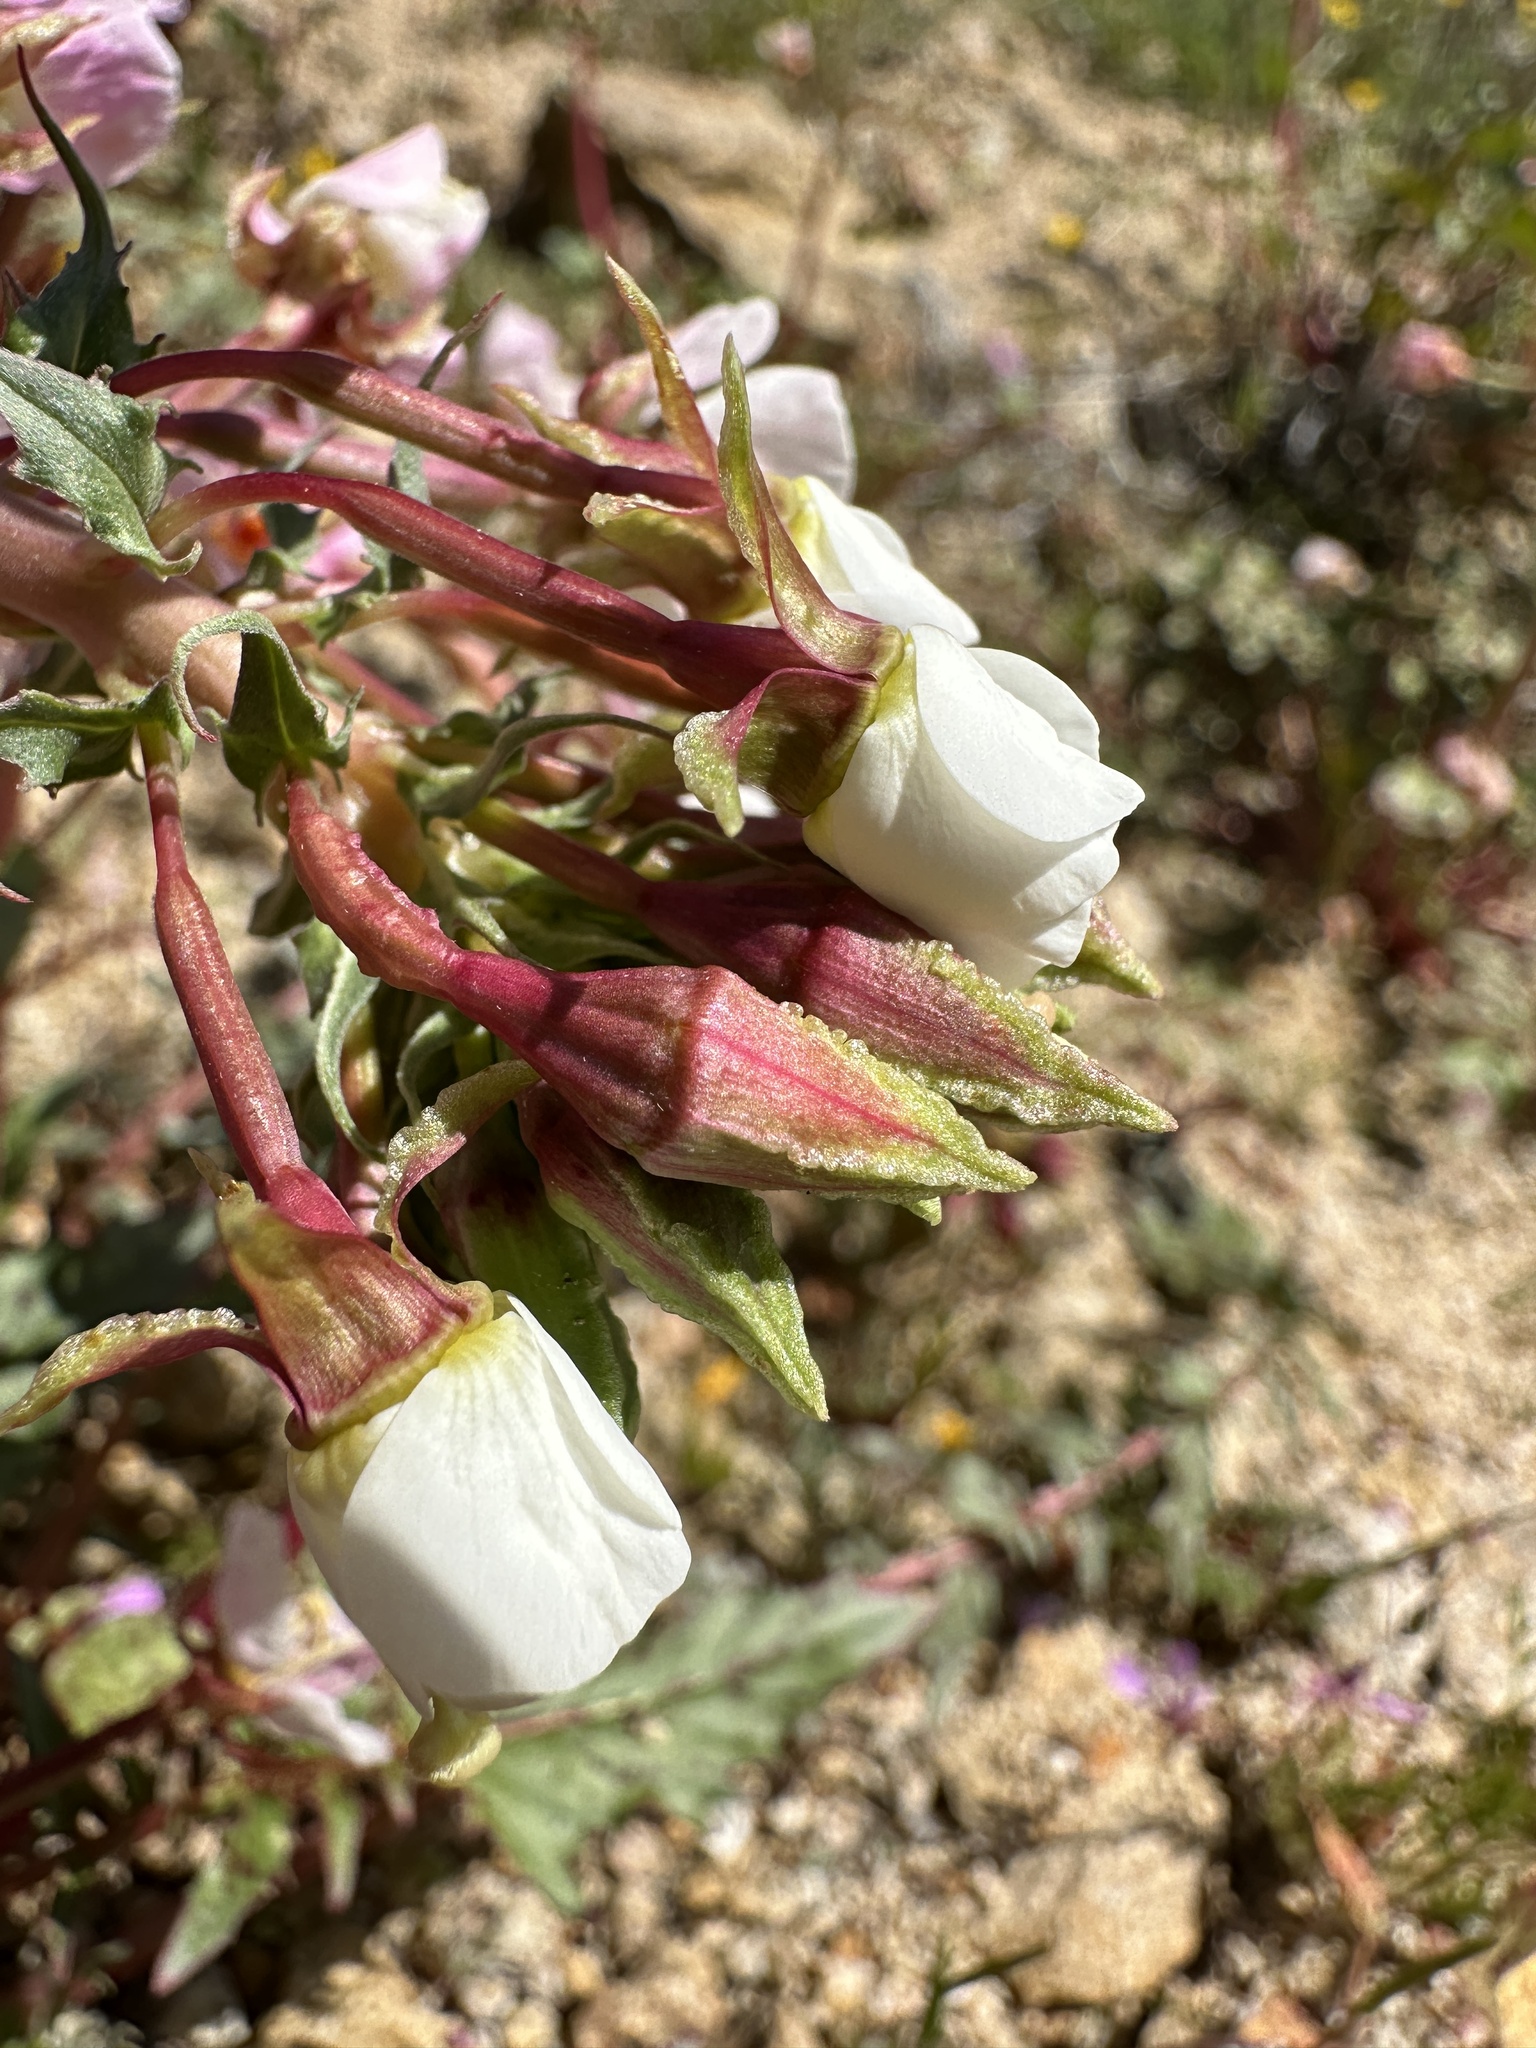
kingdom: Plantae
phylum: Tracheophyta
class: Magnoliopsida
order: Myrtales
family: Onagraceae
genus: Chylismia
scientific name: Chylismia claviformis
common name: Browneyes
